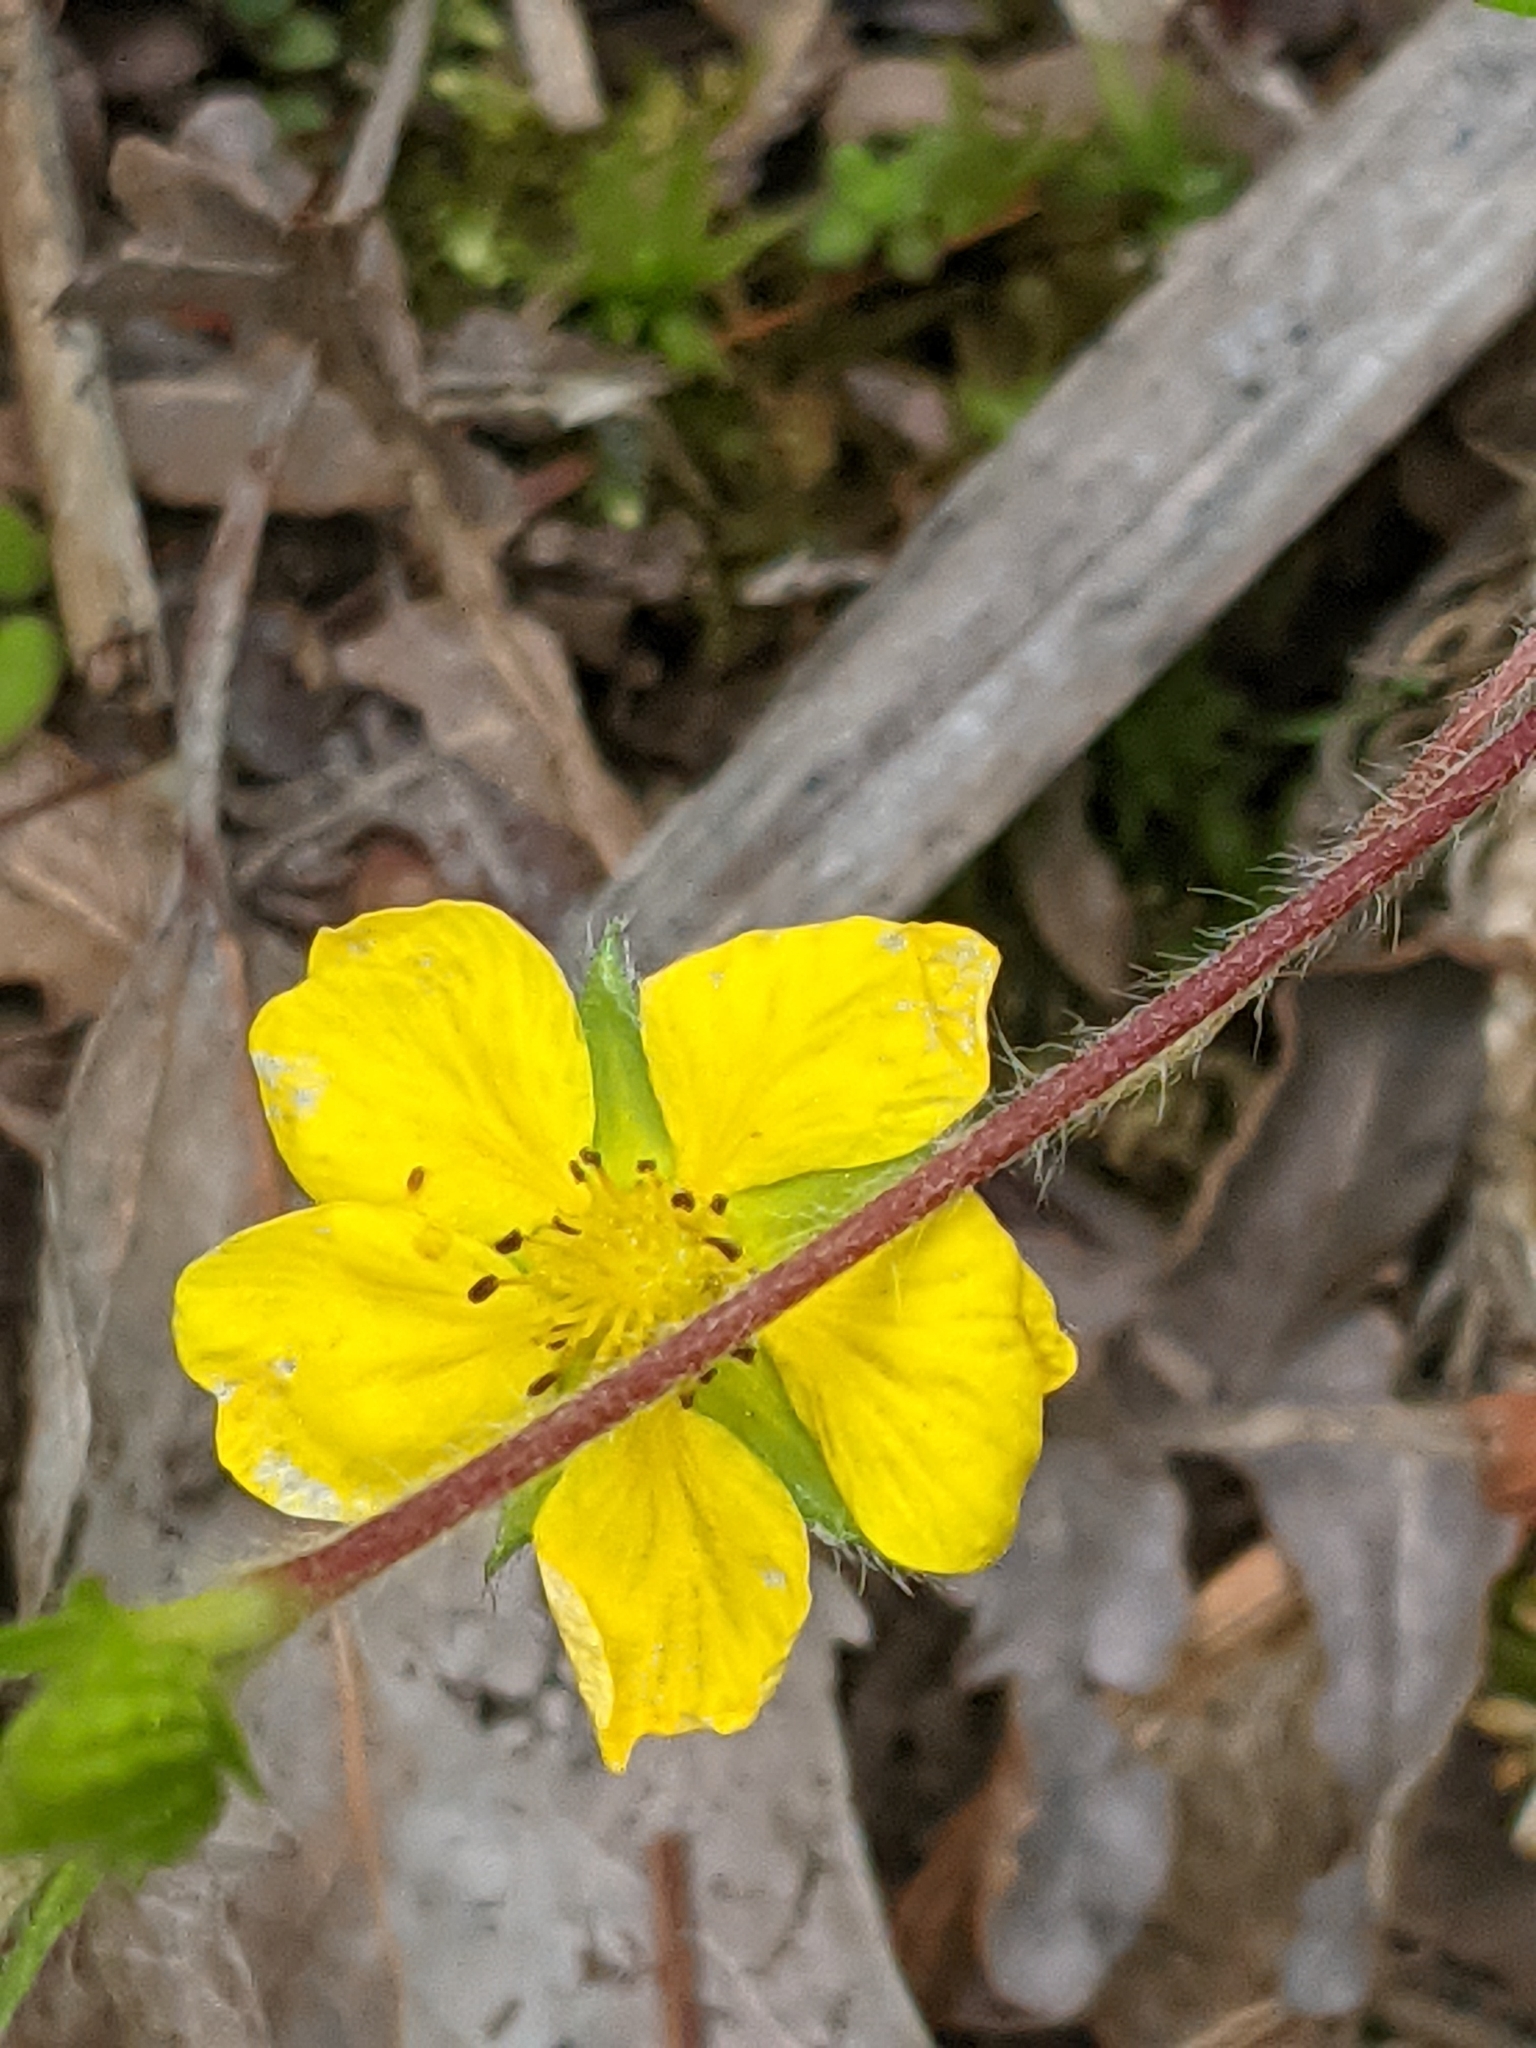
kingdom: Plantae
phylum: Tracheophyta
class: Magnoliopsida
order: Rosales
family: Rosaceae
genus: Potentilla
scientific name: Potentilla simplex
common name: Old field cinquefoil
